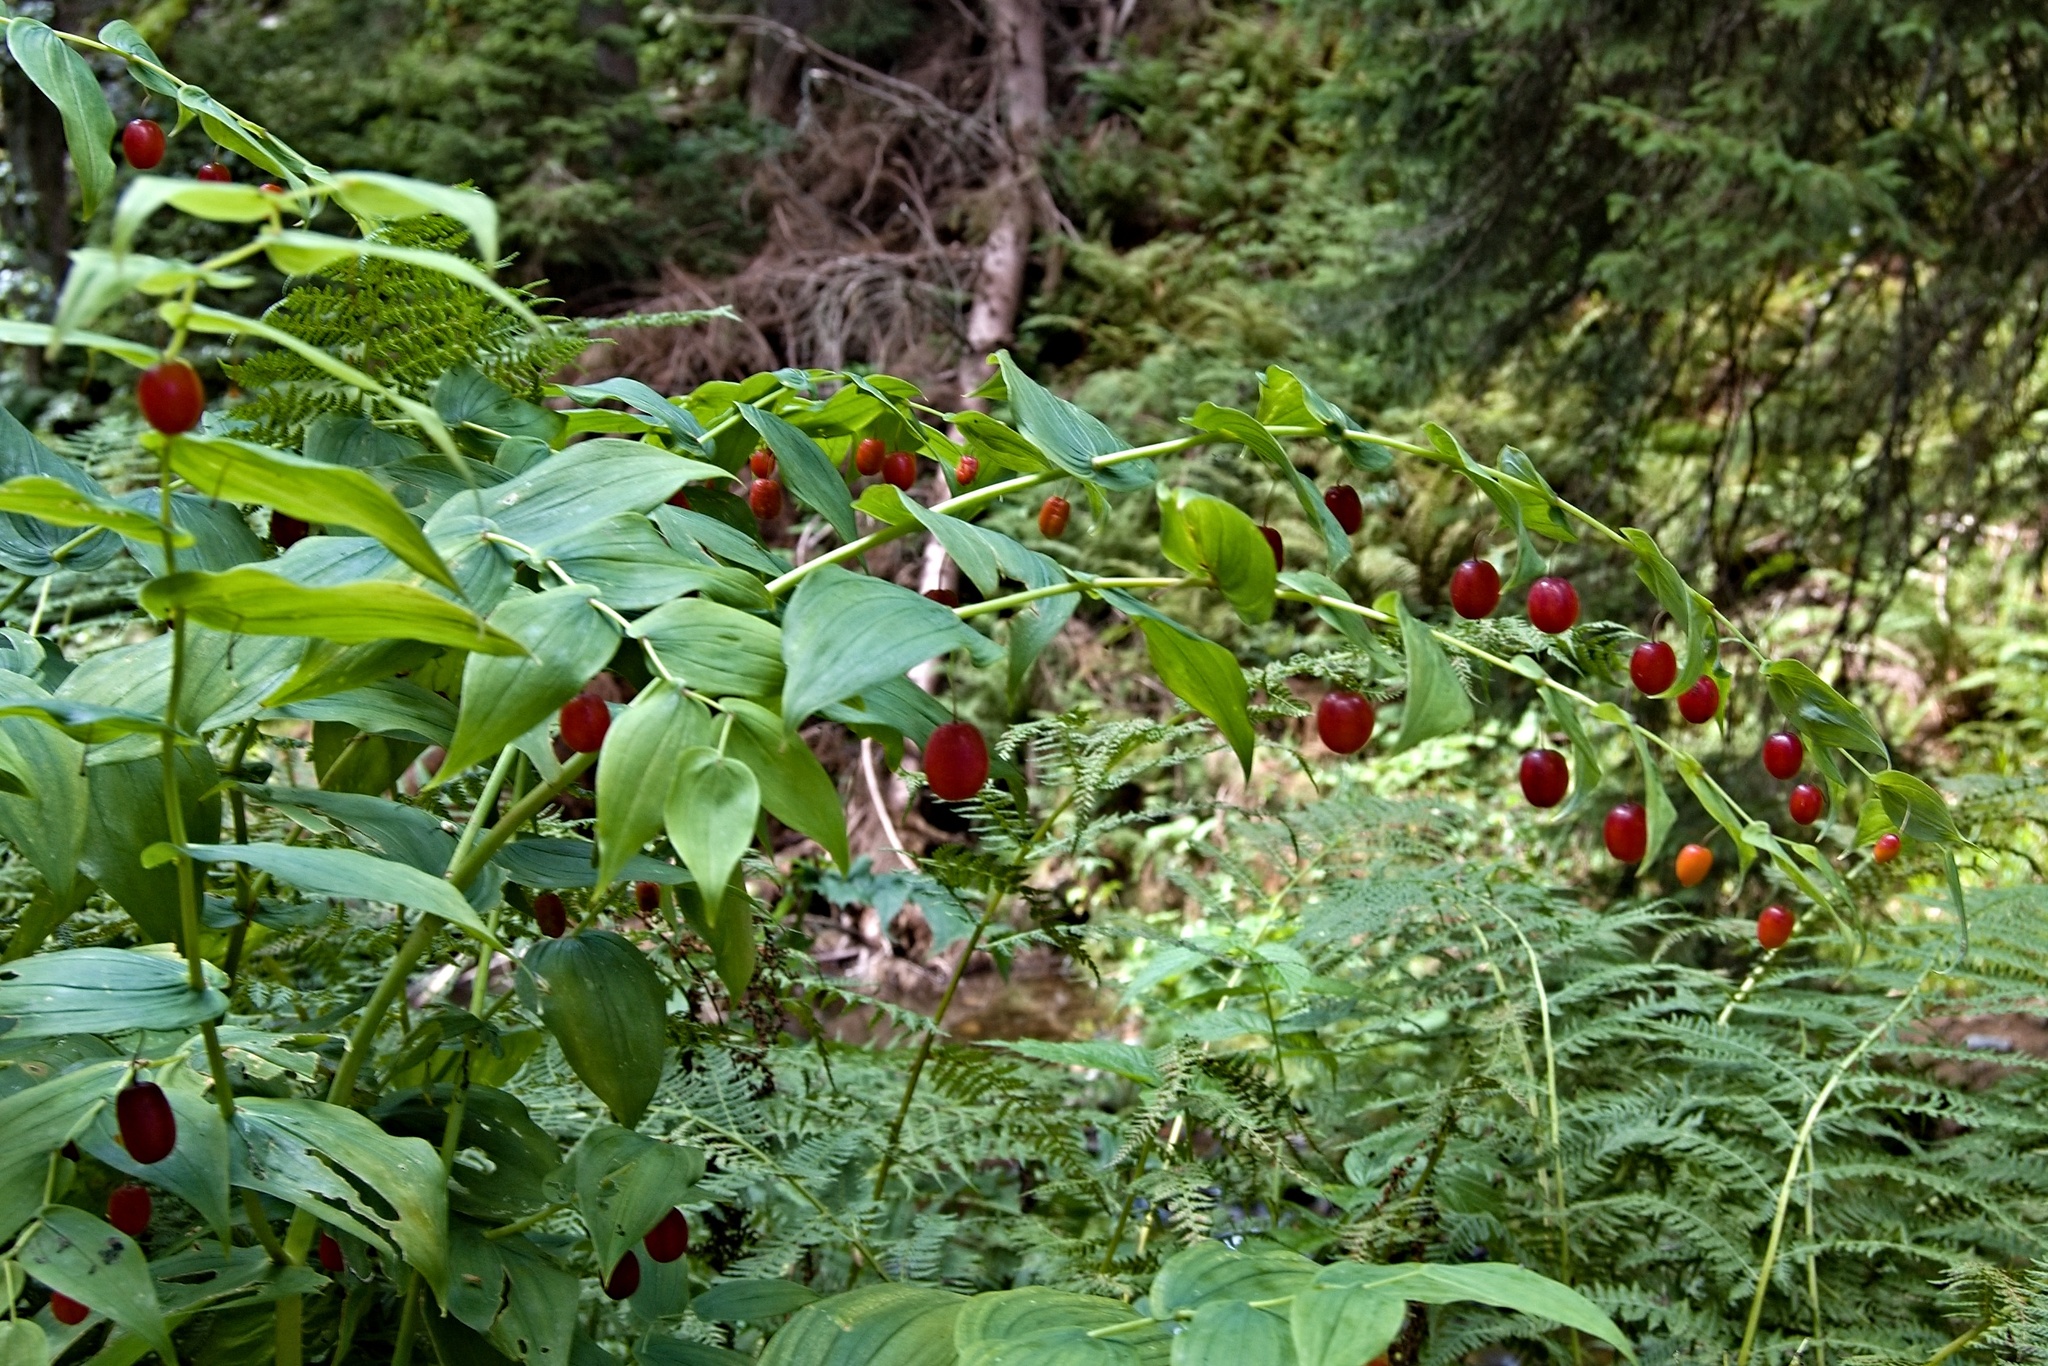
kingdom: Plantae
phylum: Tracheophyta
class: Liliopsida
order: Liliales
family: Liliaceae
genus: Streptopus
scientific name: Streptopus amplexifolius
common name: Clasp twisted stalk
